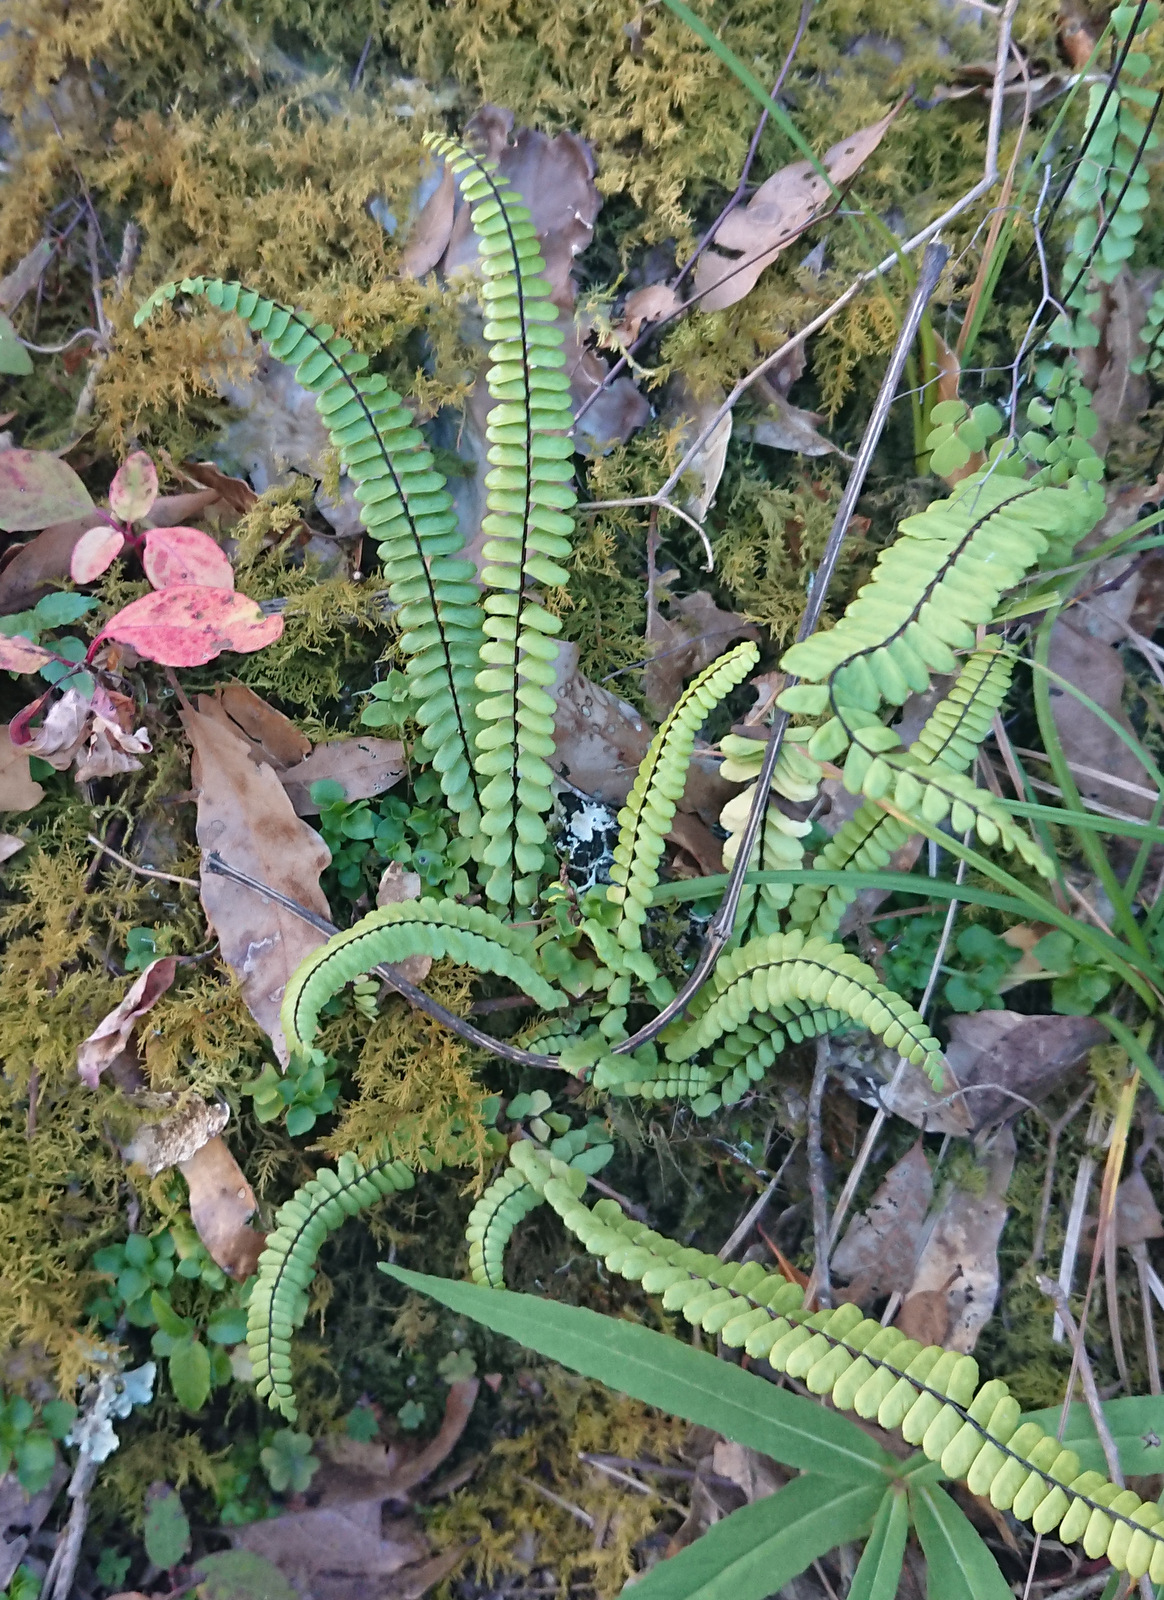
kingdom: Plantae
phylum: Tracheophyta
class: Polypodiopsida
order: Polypodiales
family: Aspleniaceae
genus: Asplenium
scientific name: Asplenium monanthes
